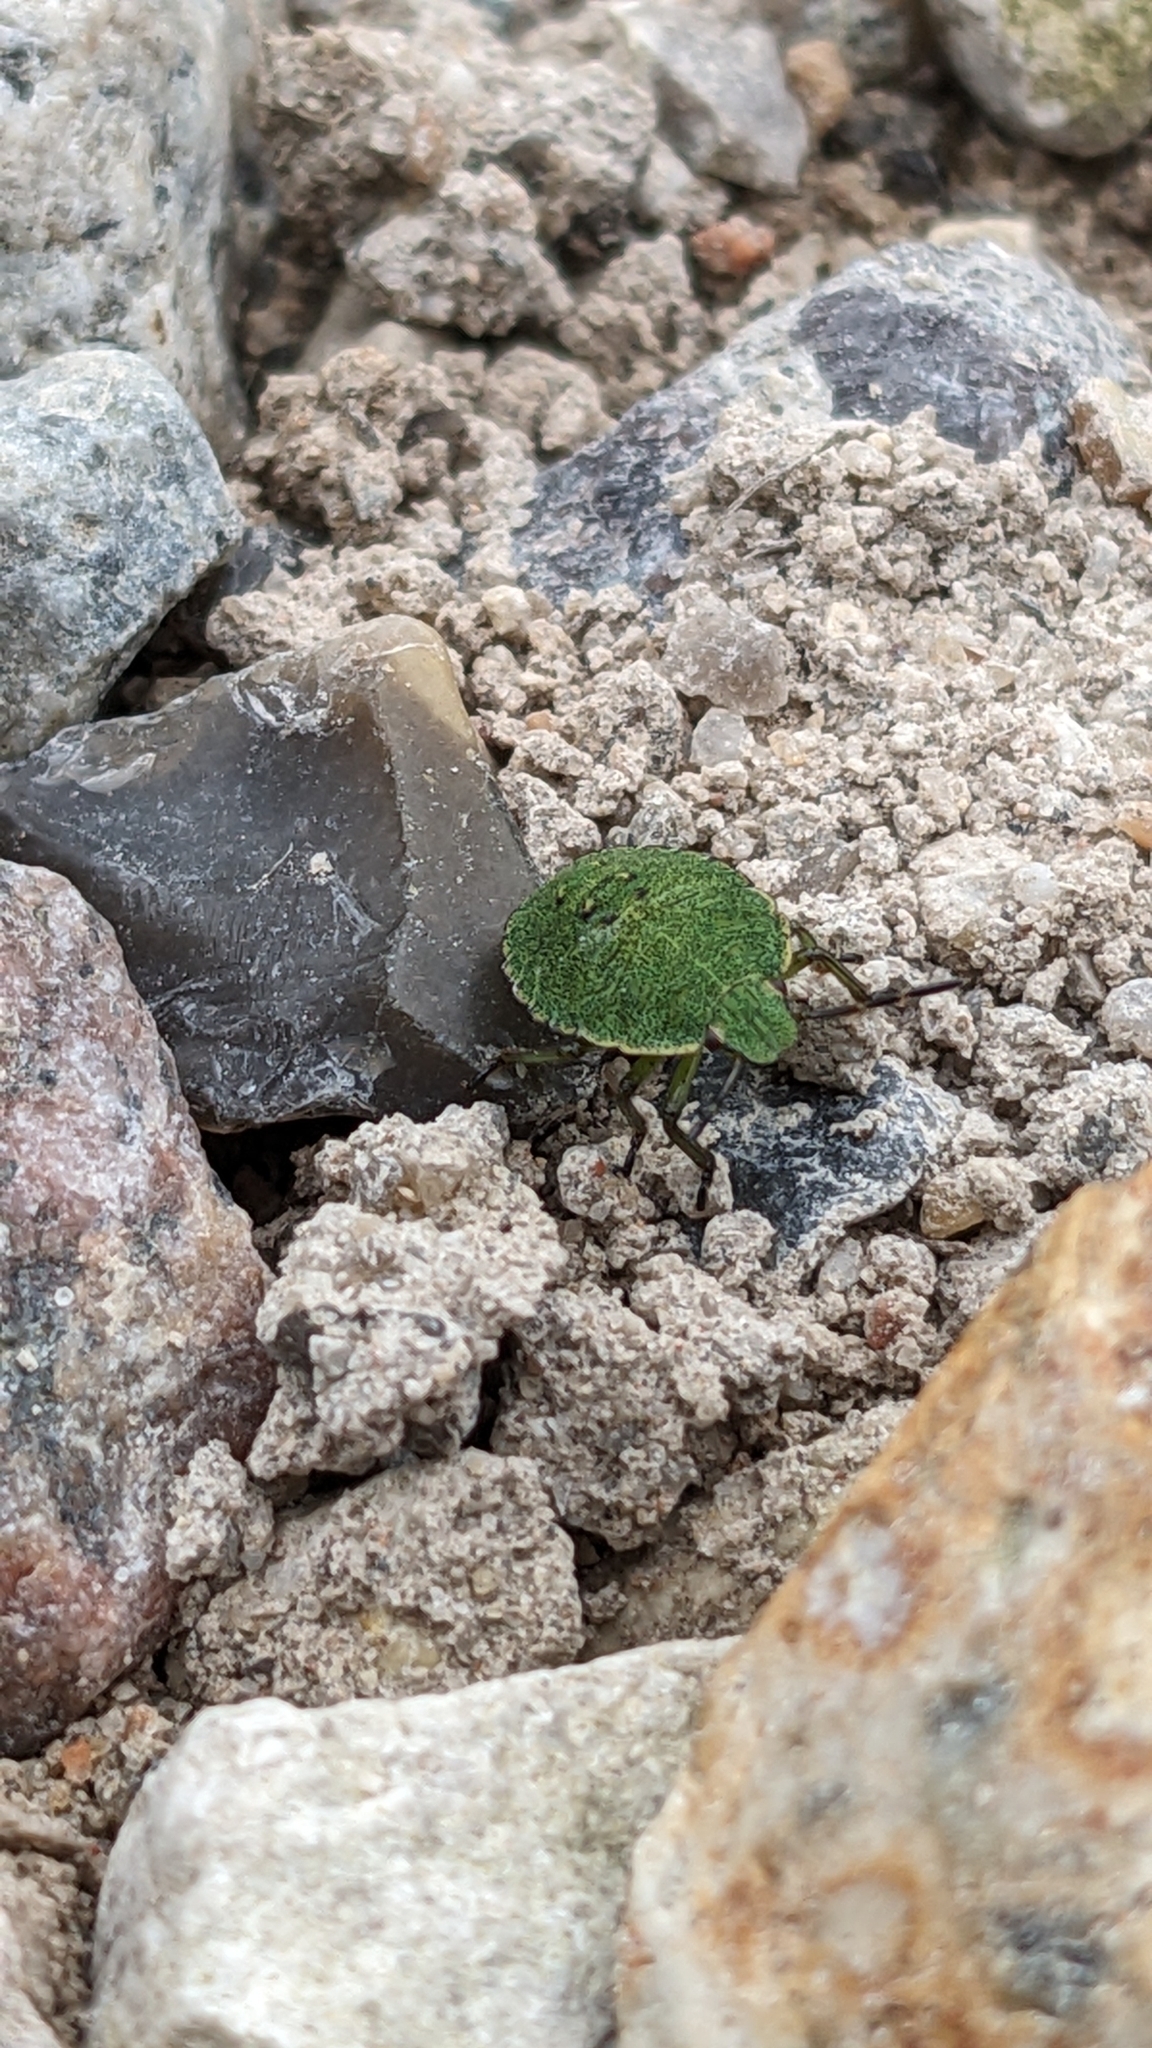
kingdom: Animalia
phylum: Arthropoda
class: Insecta
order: Hemiptera
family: Pentatomidae
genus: Palomena
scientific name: Palomena prasina
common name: Green shieldbug
